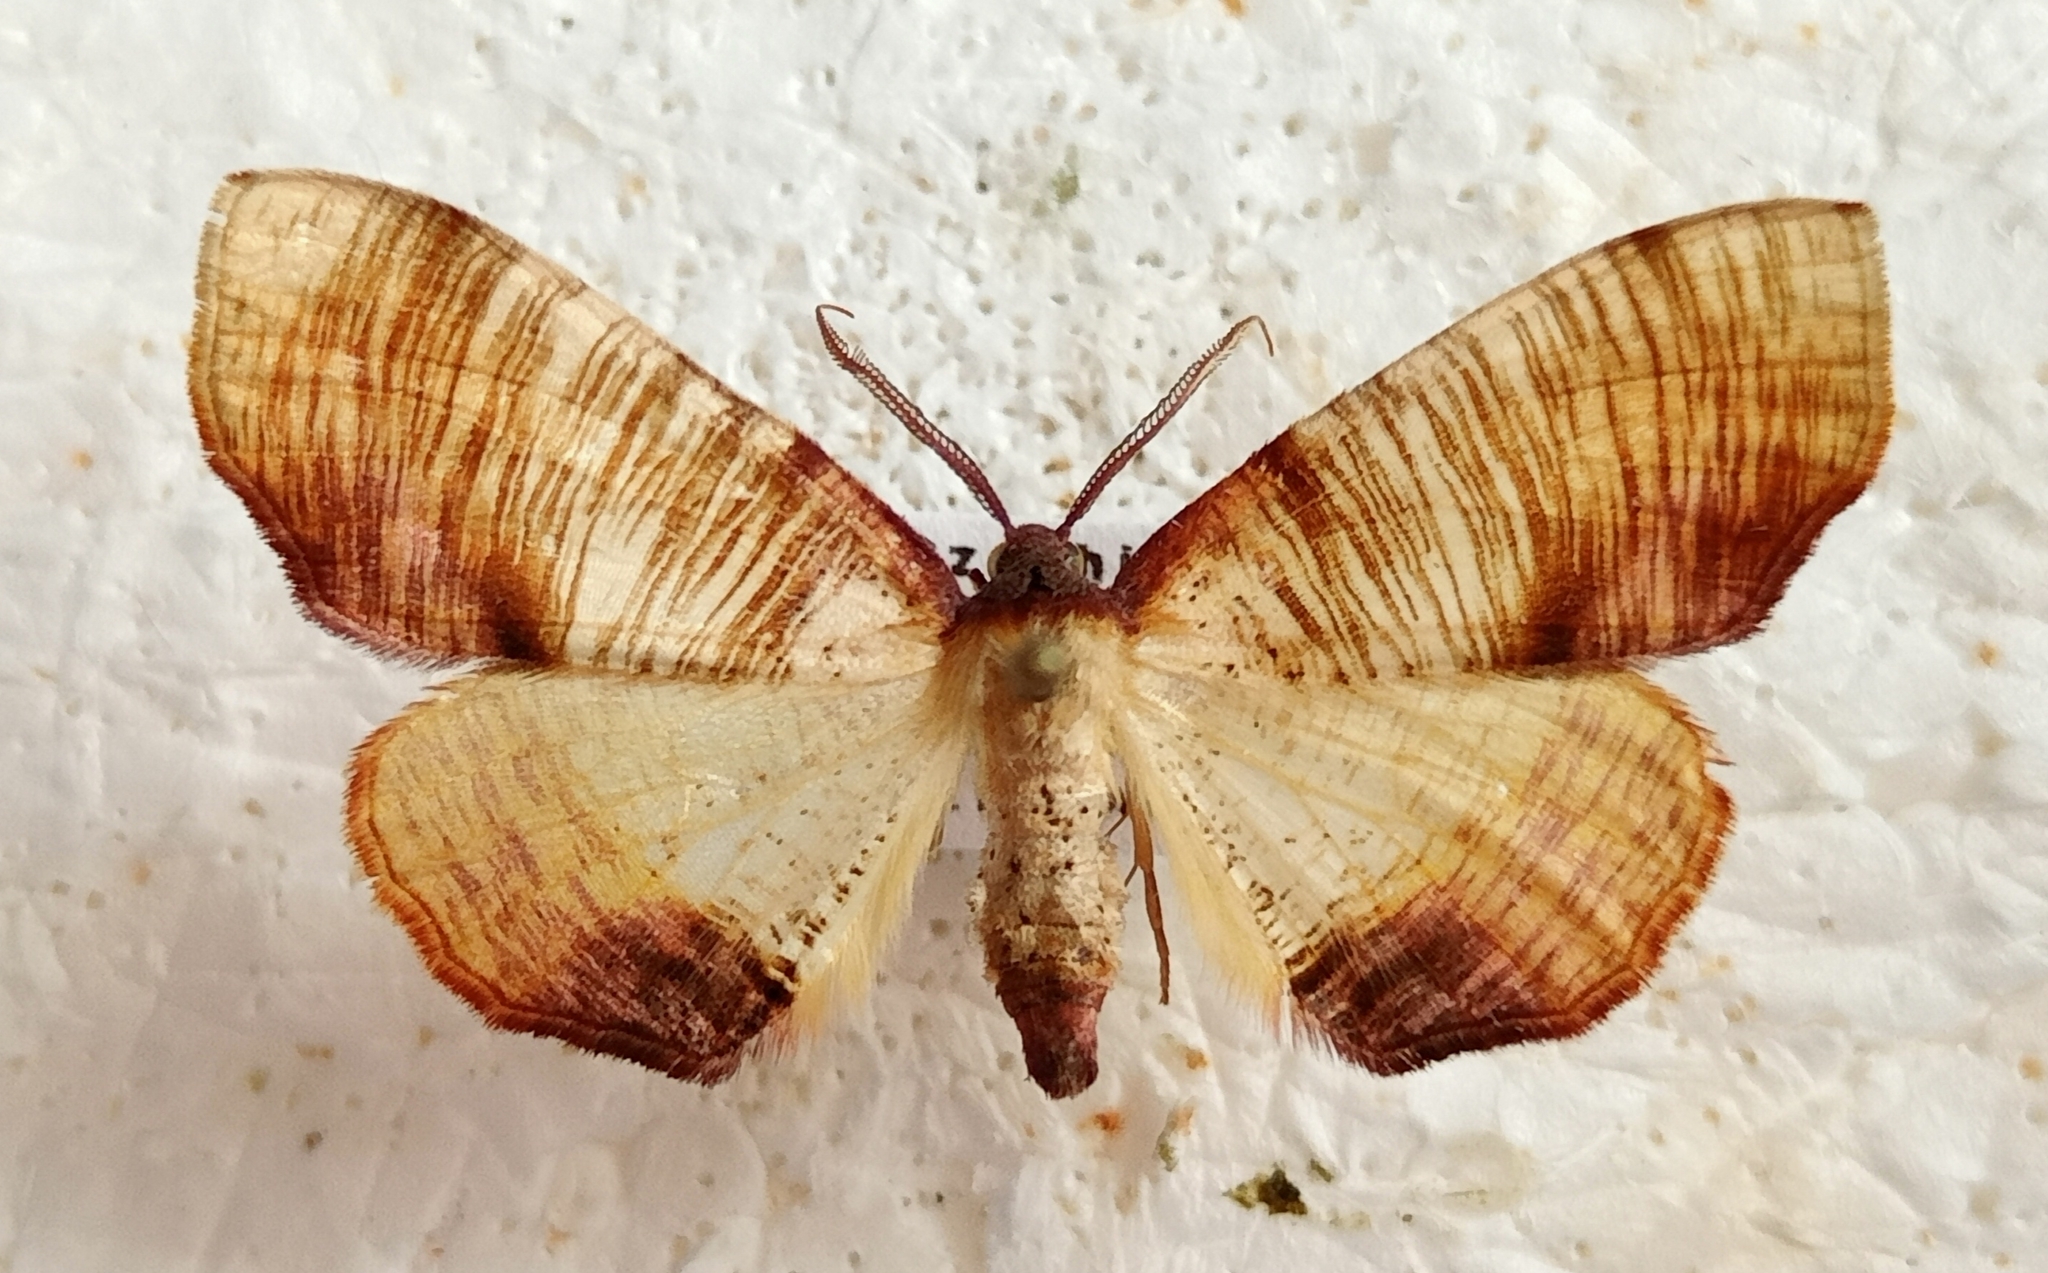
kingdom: Animalia
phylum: Arthropoda
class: Insecta
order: Lepidoptera
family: Geometridae
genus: Plagodis
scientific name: Plagodis dolabraria
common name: Scorched wing
